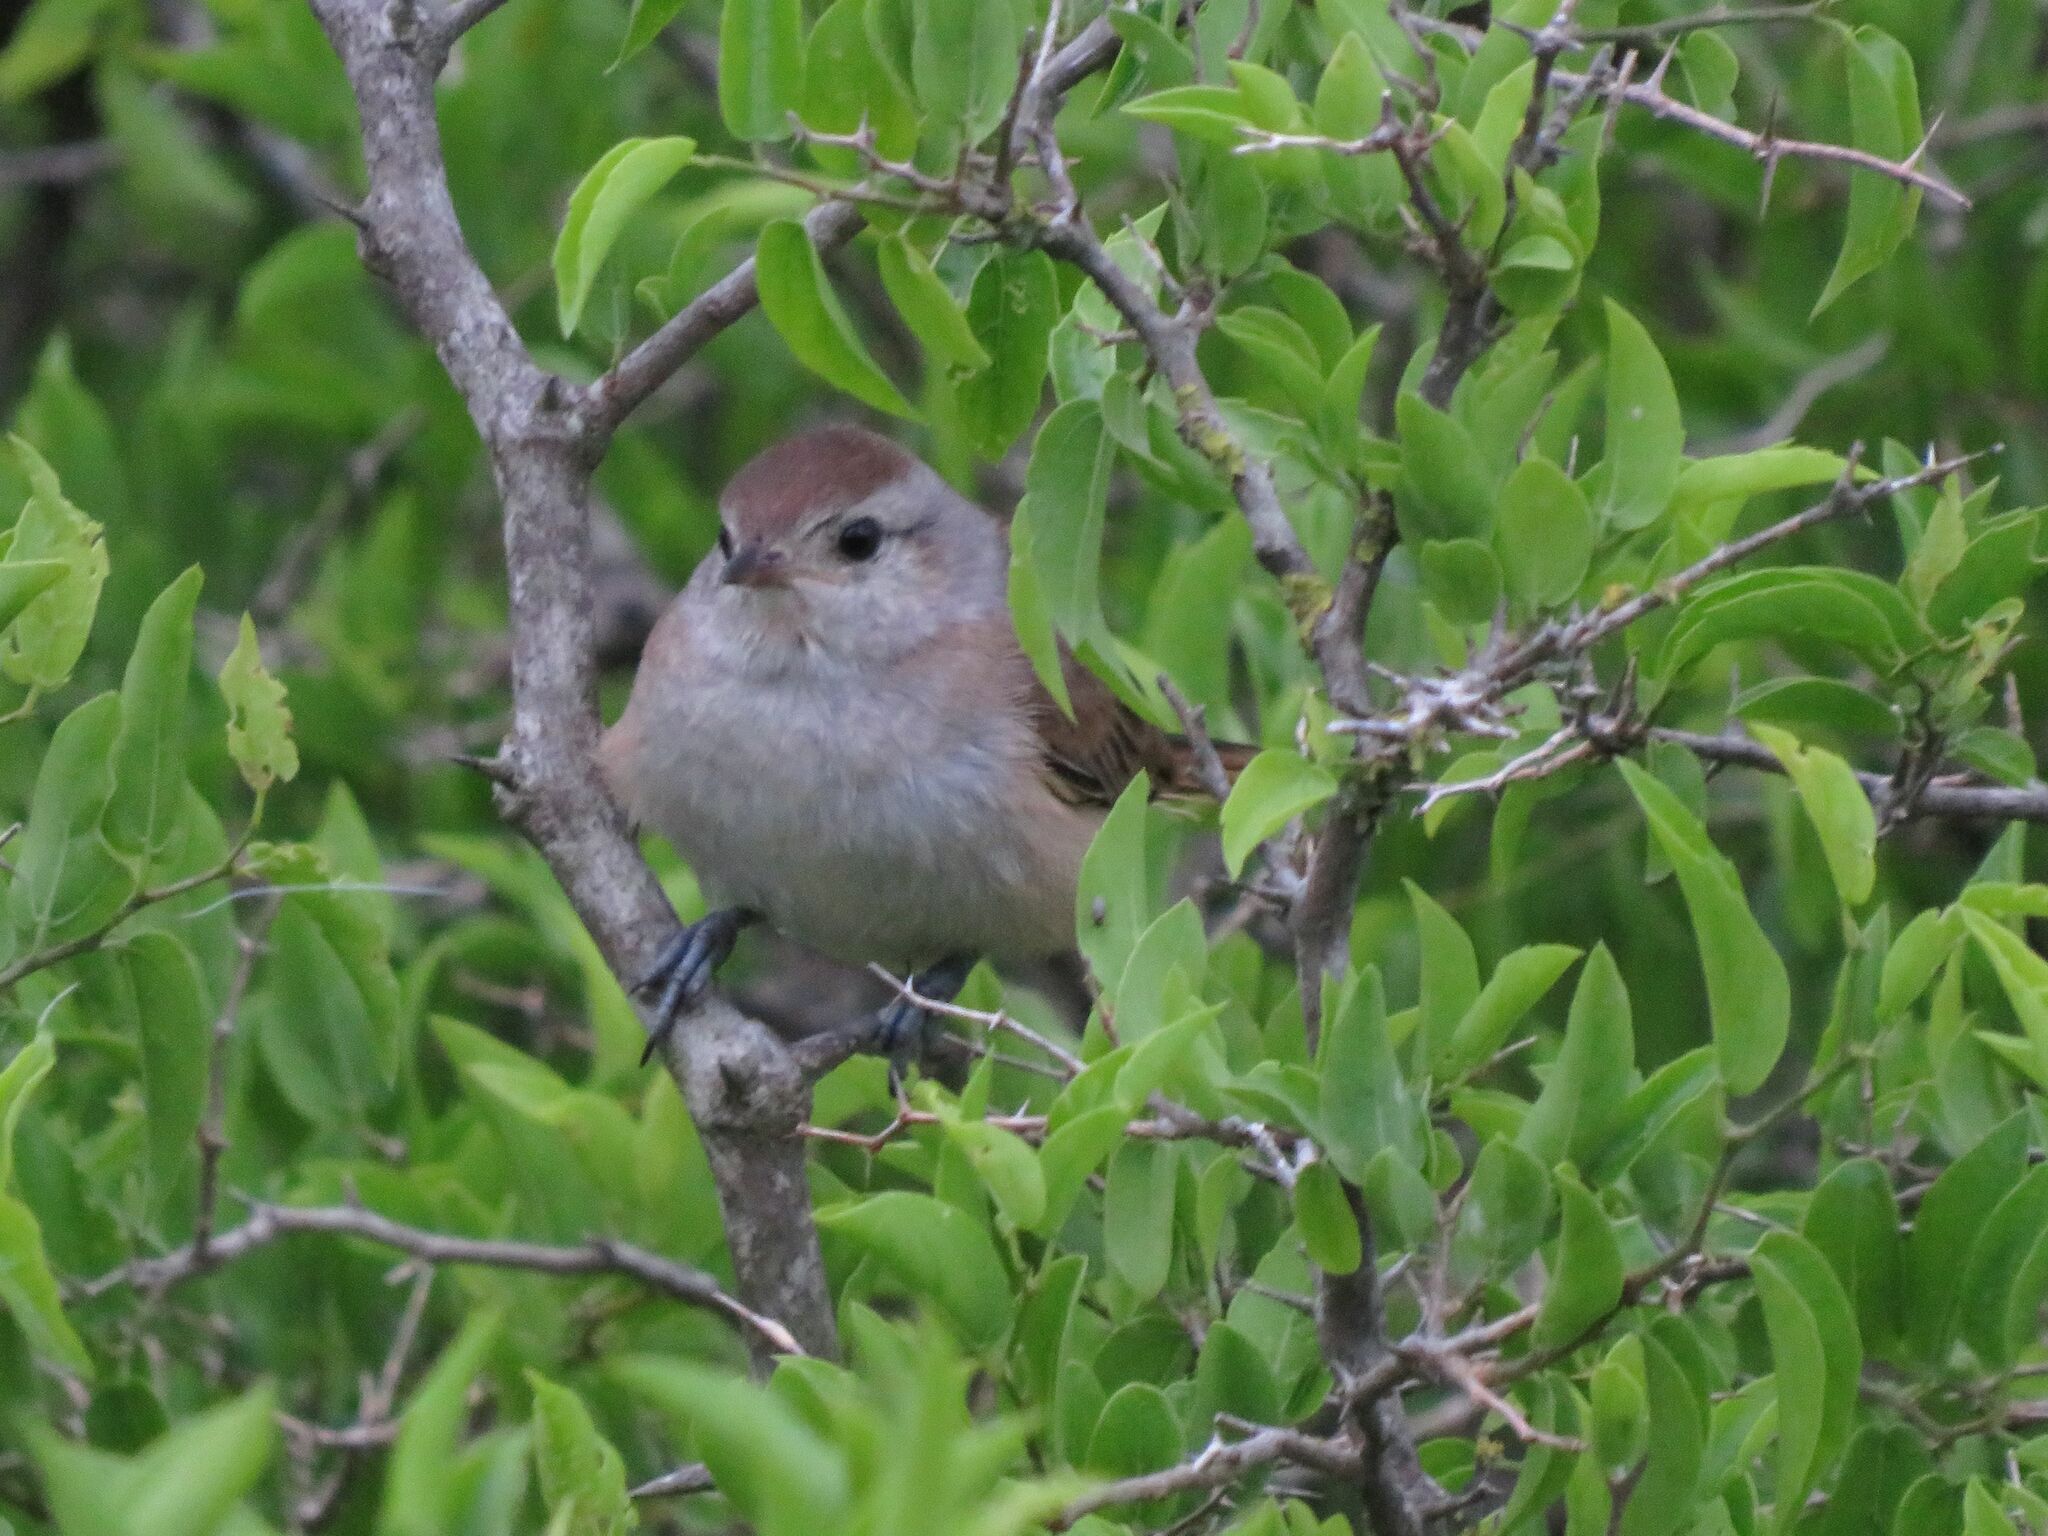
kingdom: Animalia
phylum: Chordata
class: Aves
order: Passeriformes
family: Furnariidae
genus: Asthenes
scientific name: Asthenes baeri
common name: Short-billed canastero
